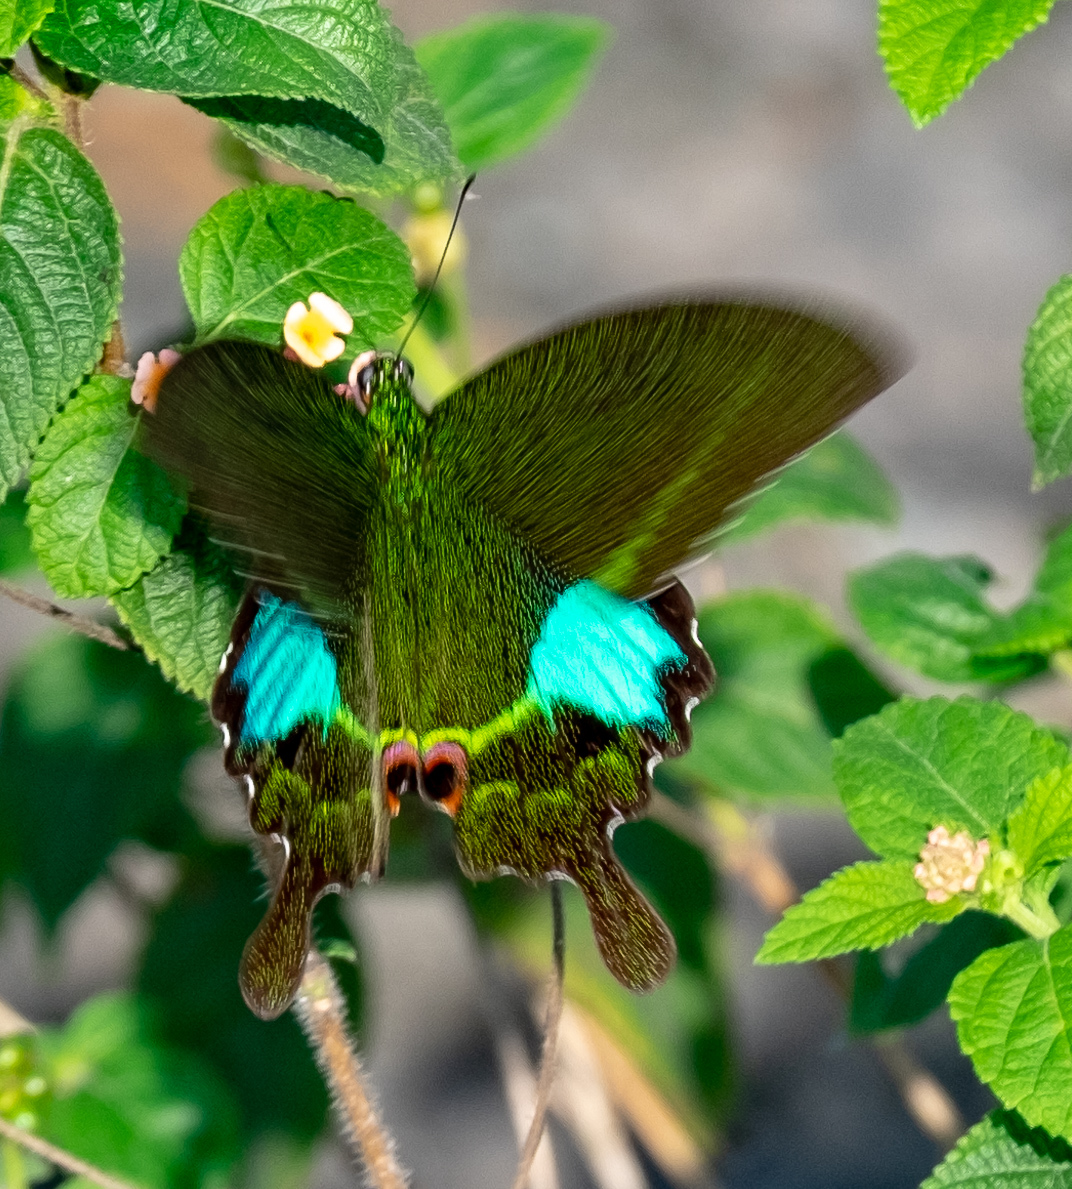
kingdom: Animalia
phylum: Arthropoda
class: Insecta
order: Lepidoptera
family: Papilionidae
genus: Papilio
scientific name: Papilio paris
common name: Paris peacock
